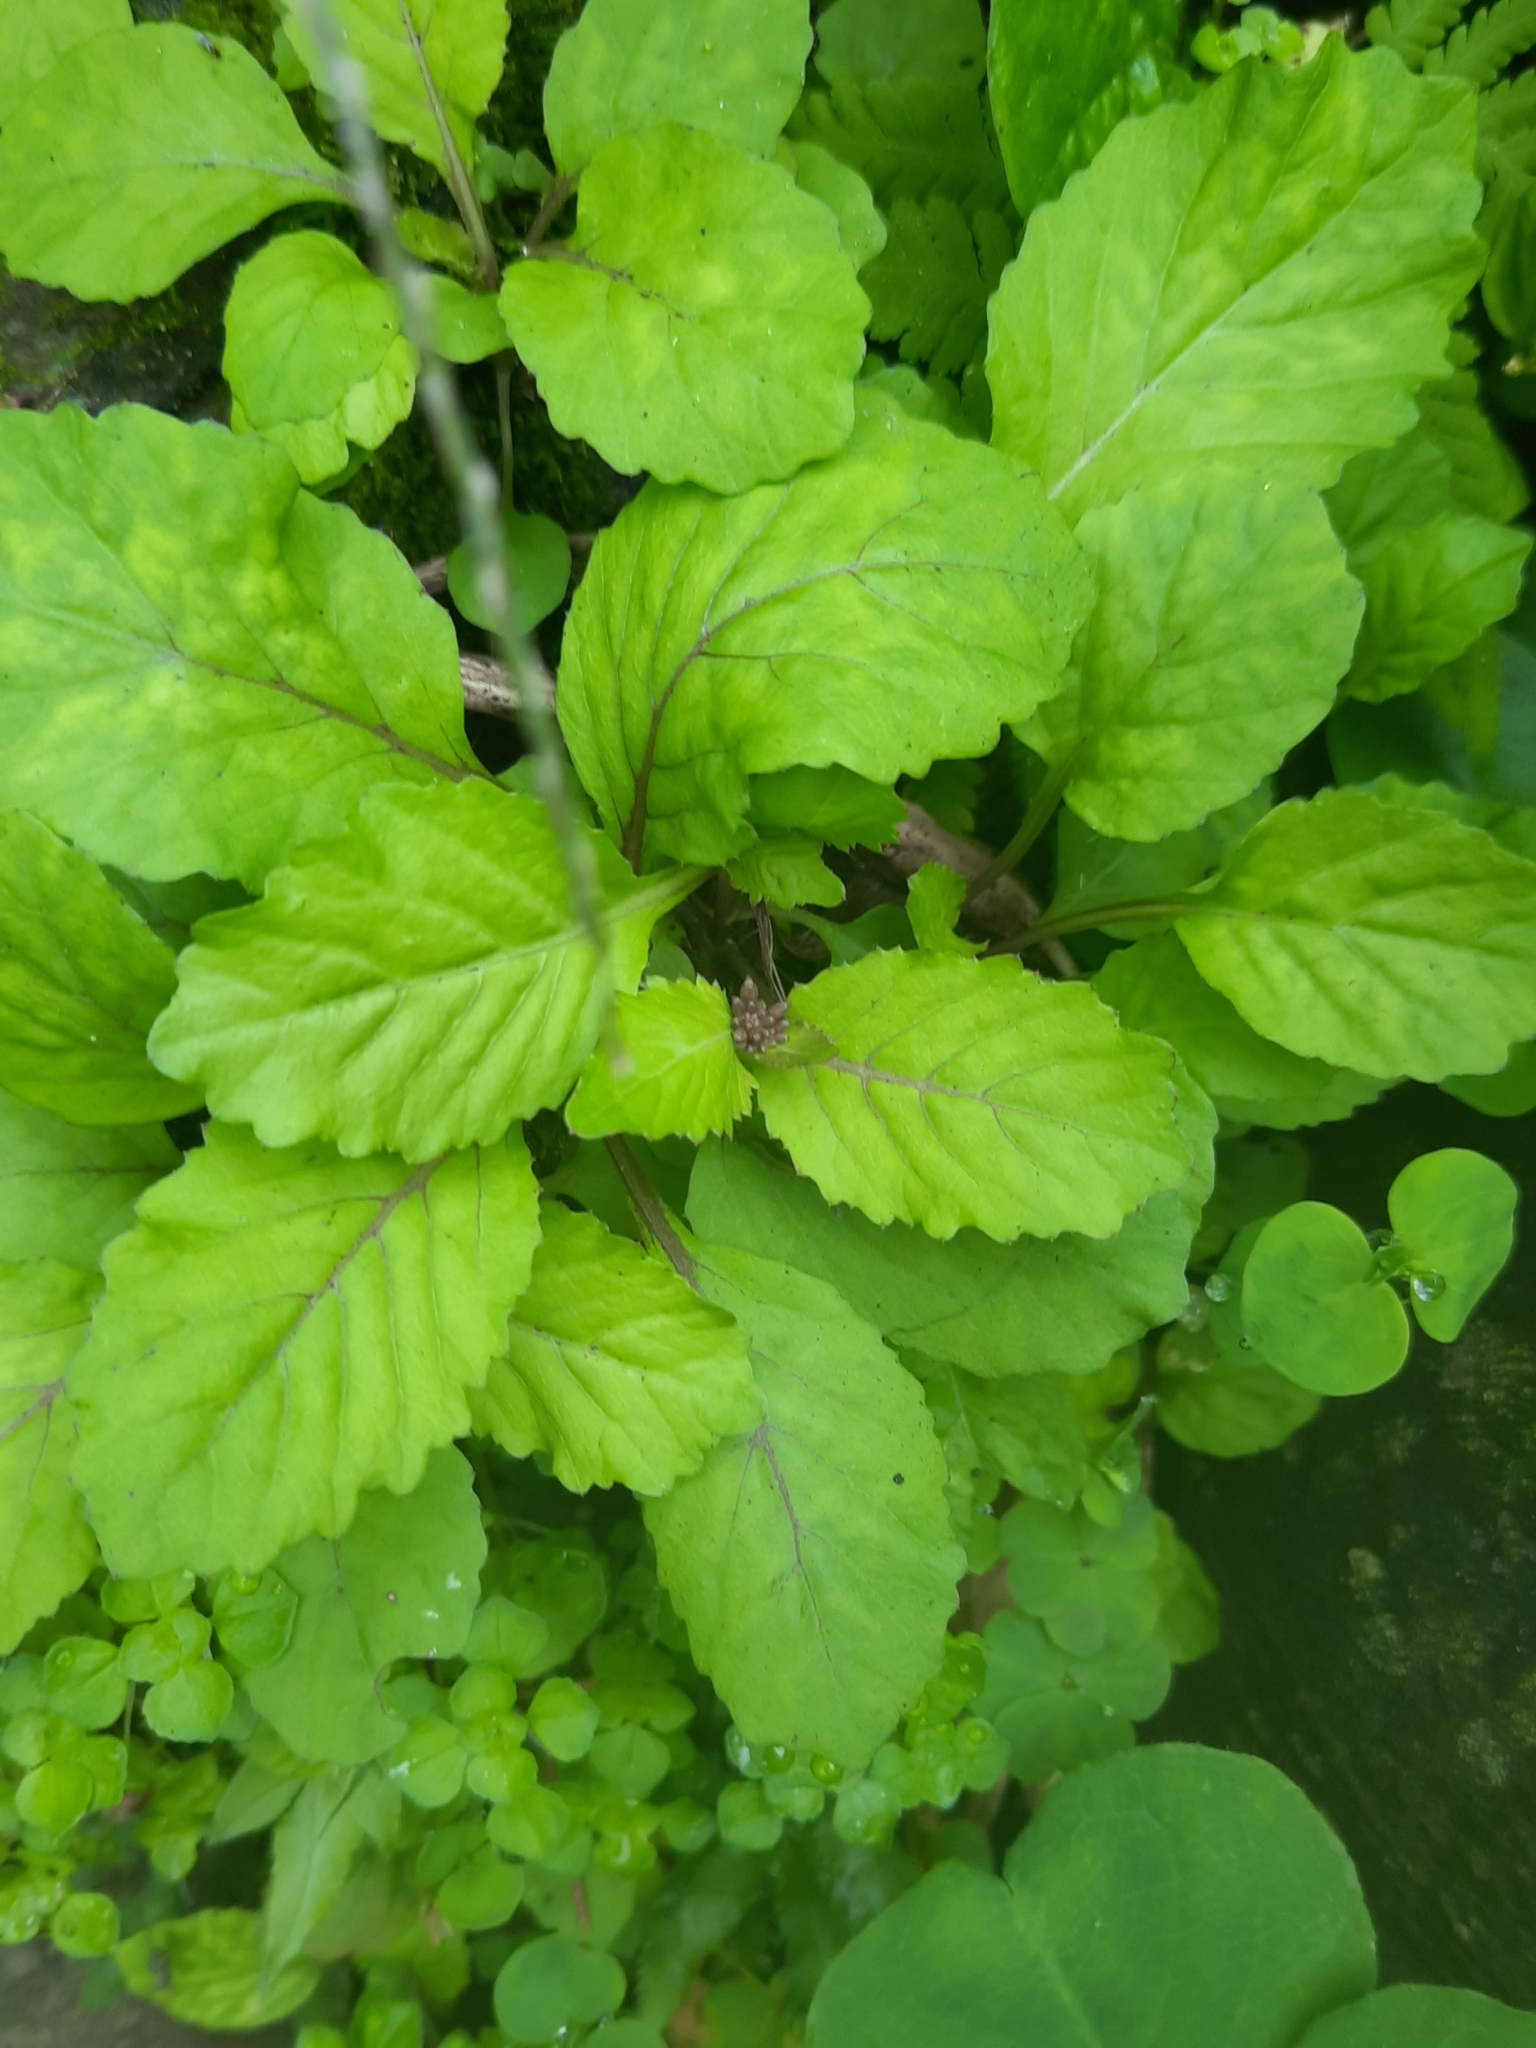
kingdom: Plantae
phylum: Tracheophyta
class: Magnoliopsida
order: Brassicales
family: Brassicaceae
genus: Rorippa
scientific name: Rorippa indica
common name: Variableleaf yellowcress
